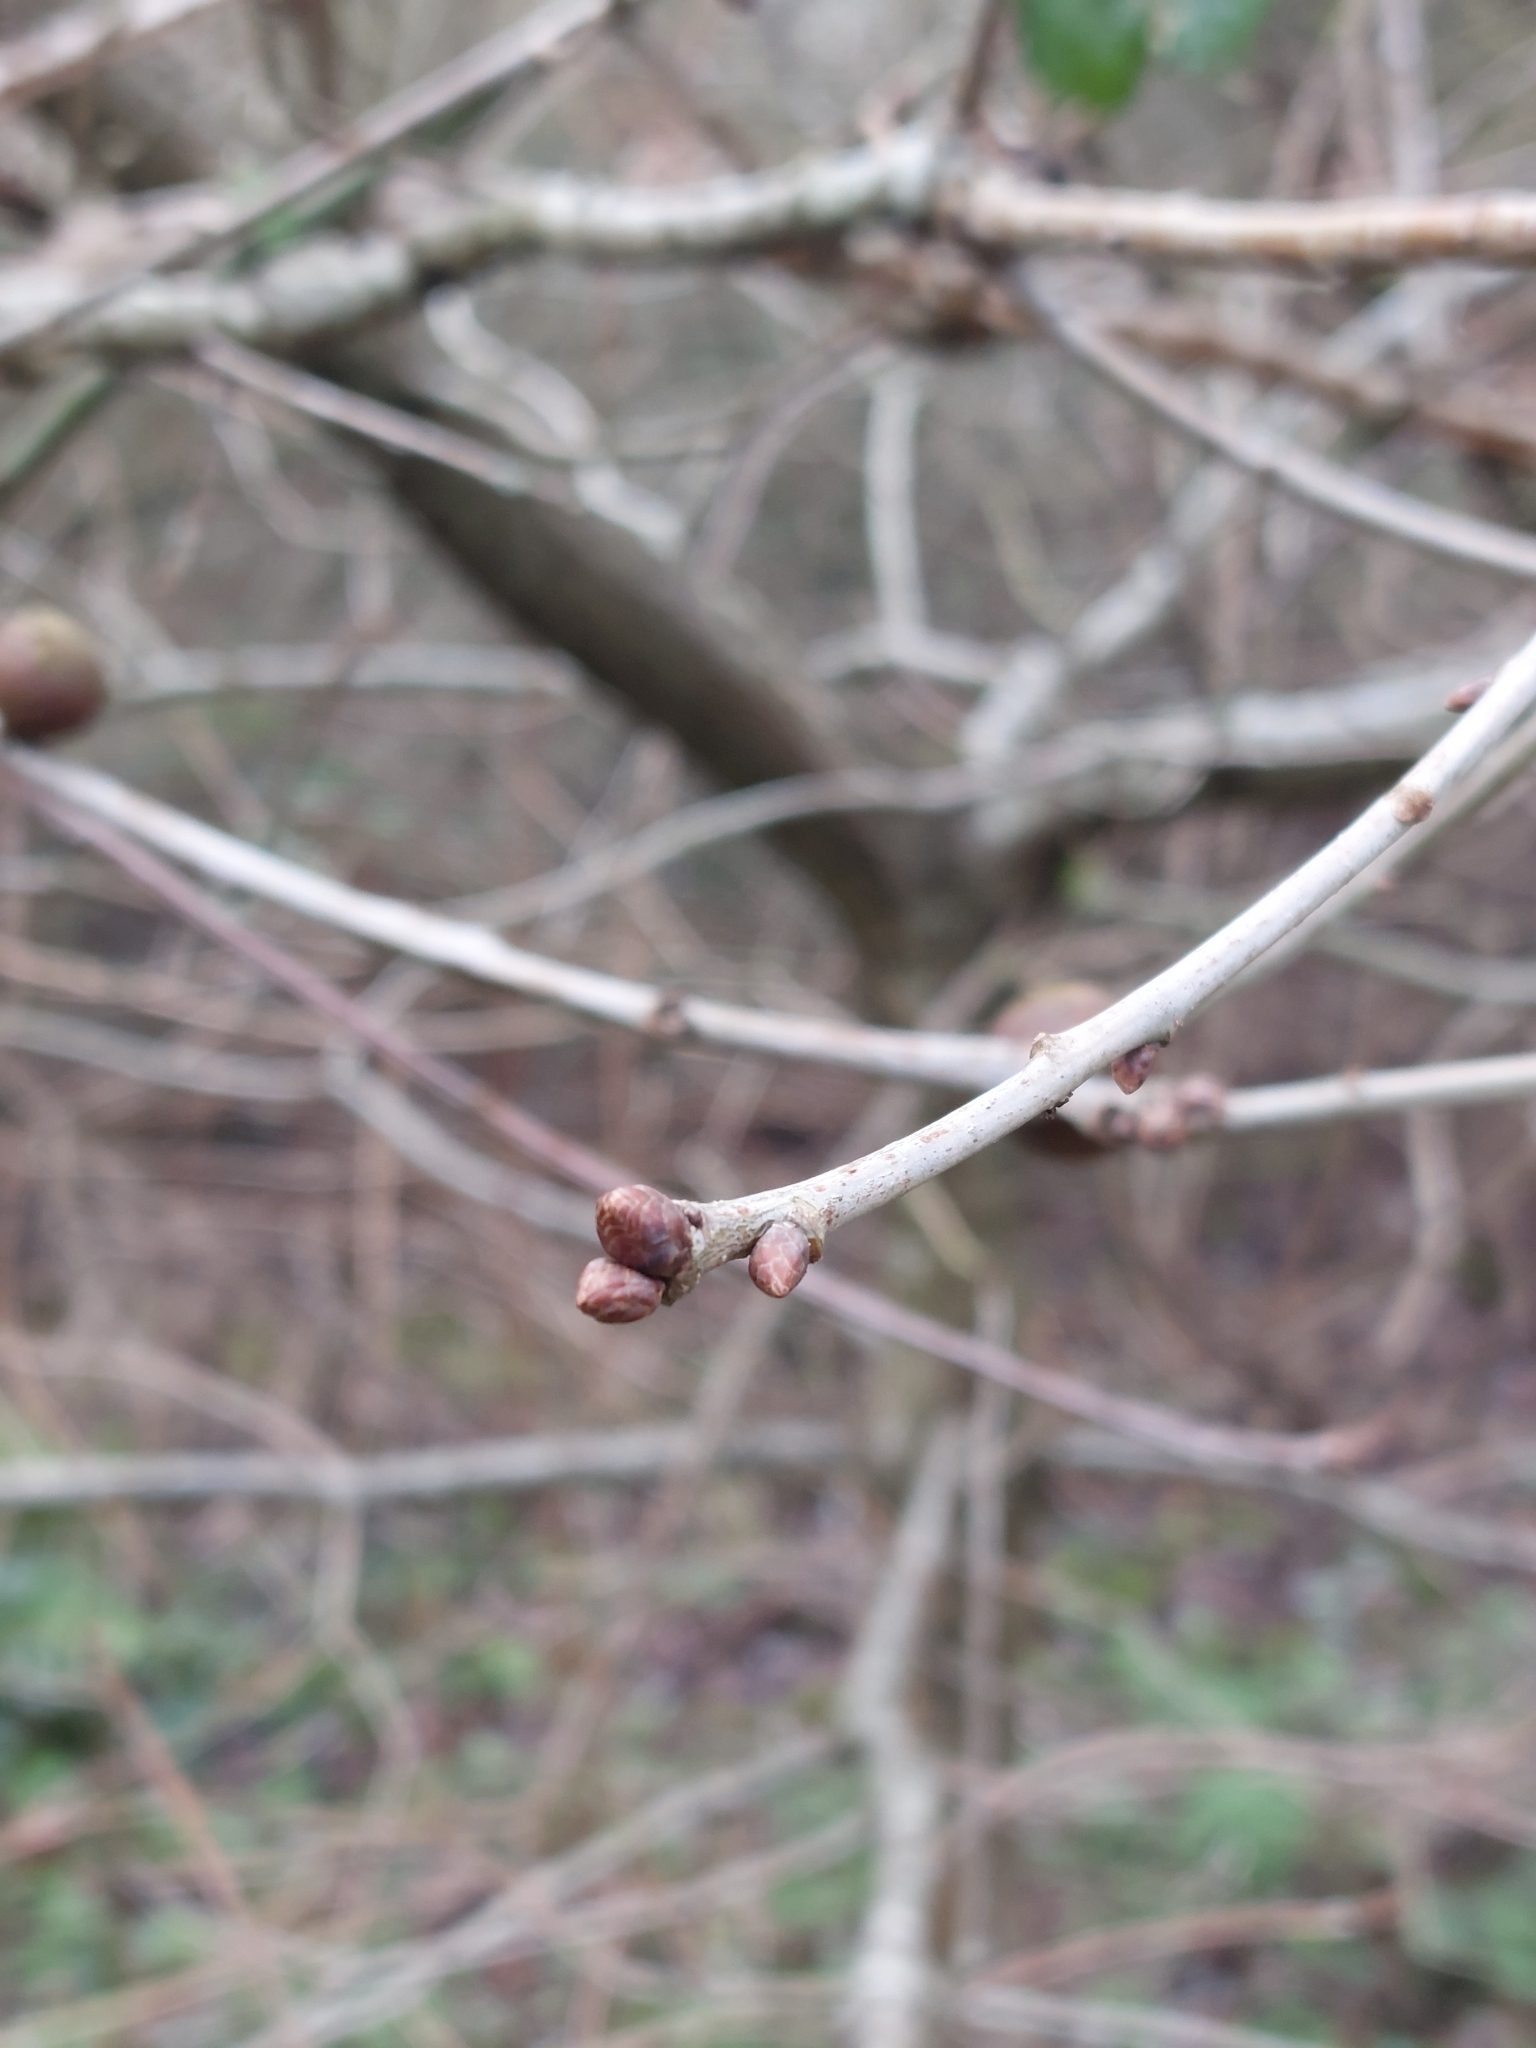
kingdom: Animalia
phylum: Arthropoda
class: Insecta
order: Hymenoptera
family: Cynipidae
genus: Andricus
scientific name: Andricus kollari
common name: Marble gall
